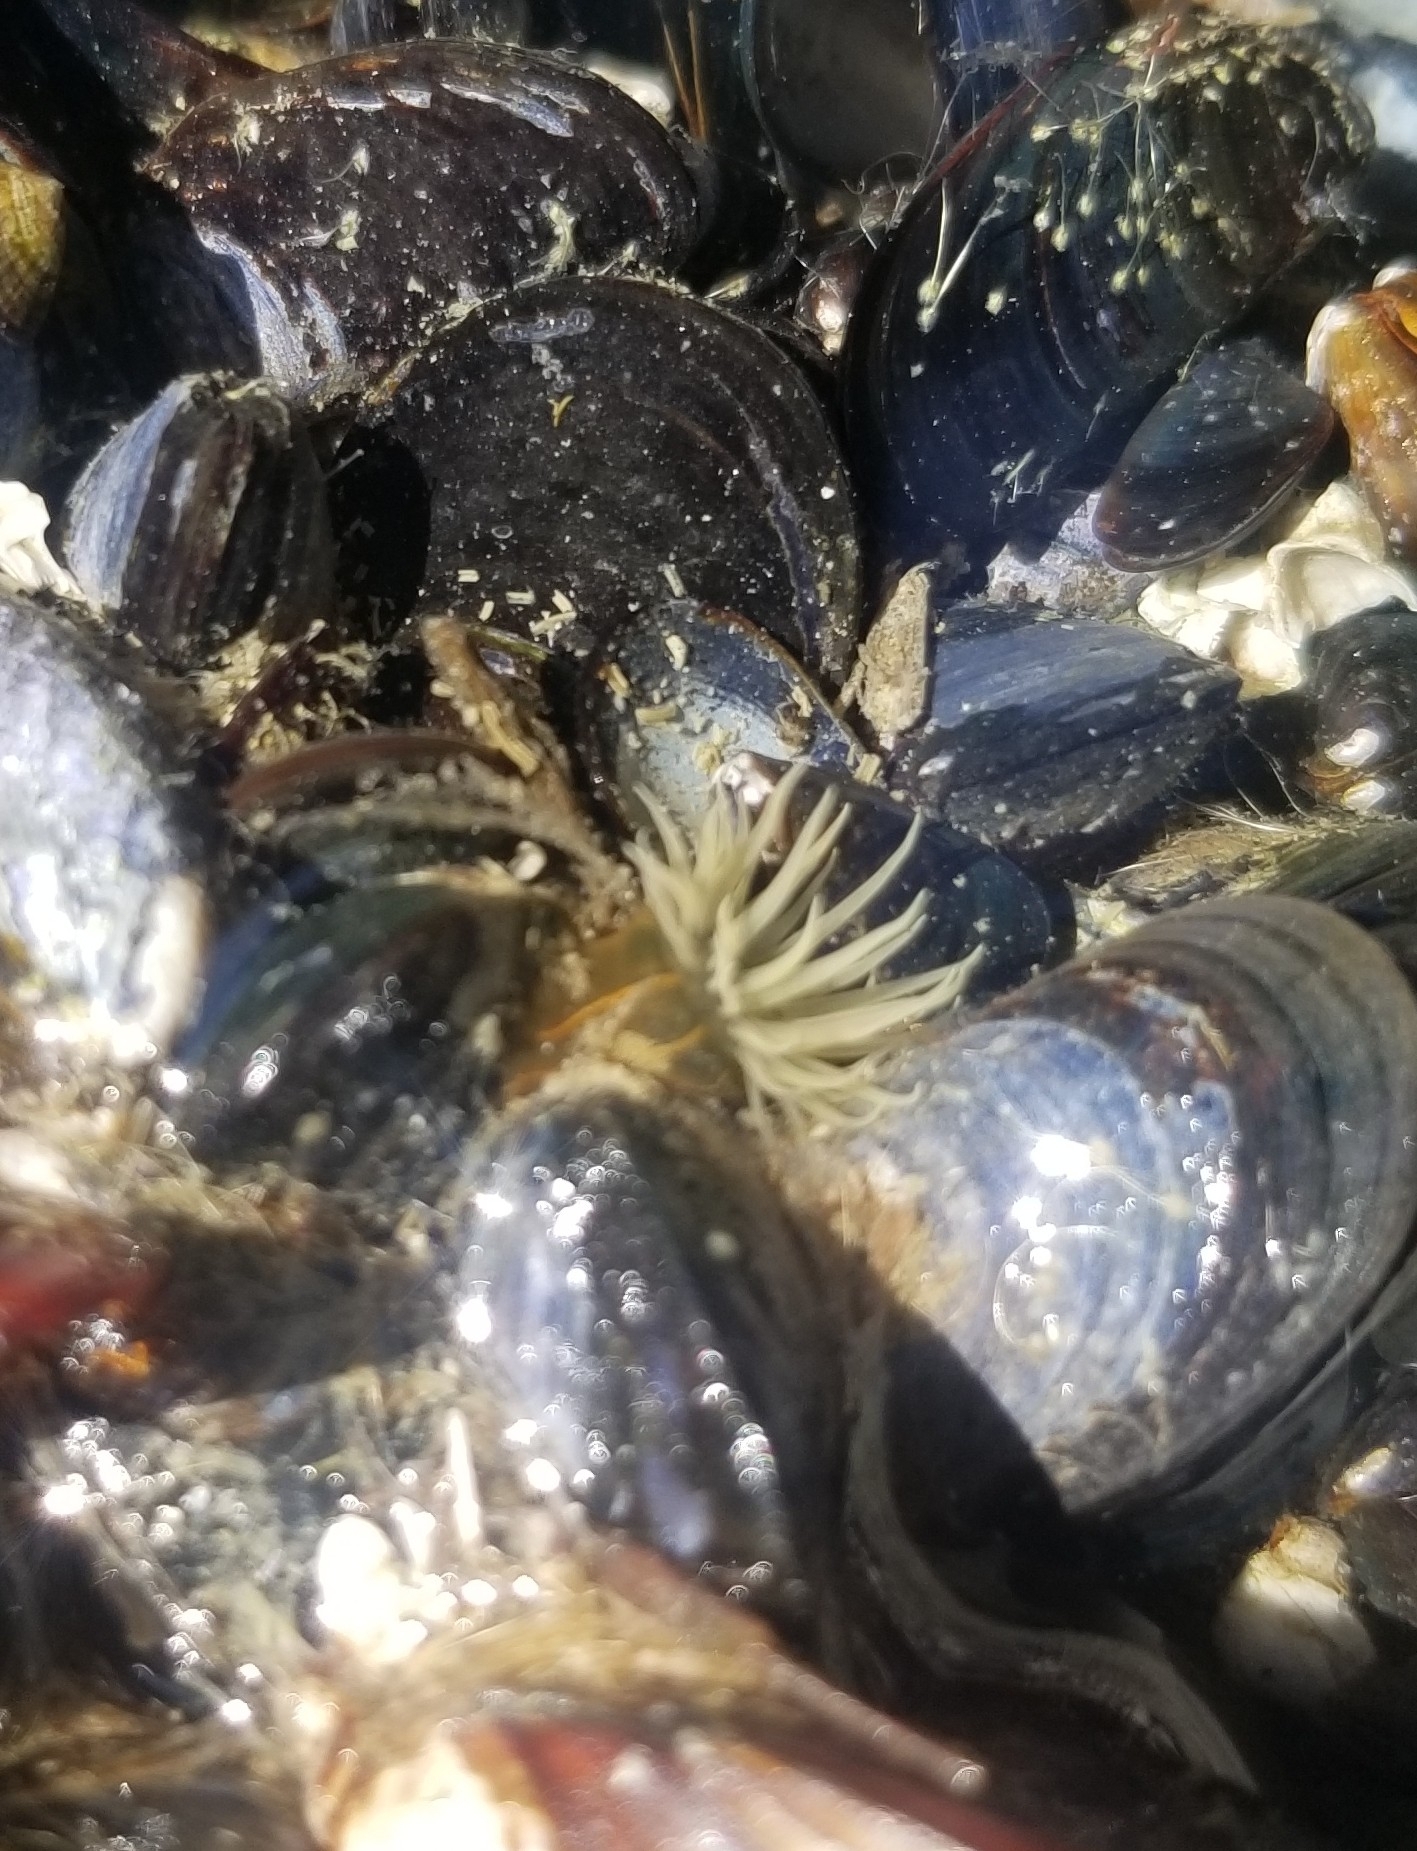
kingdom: Animalia
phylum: Cnidaria
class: Anthozoa
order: Actiniaria
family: Diadumenidae
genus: Diadumene
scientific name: Diadumene lineata
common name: Orange-striped anemone
